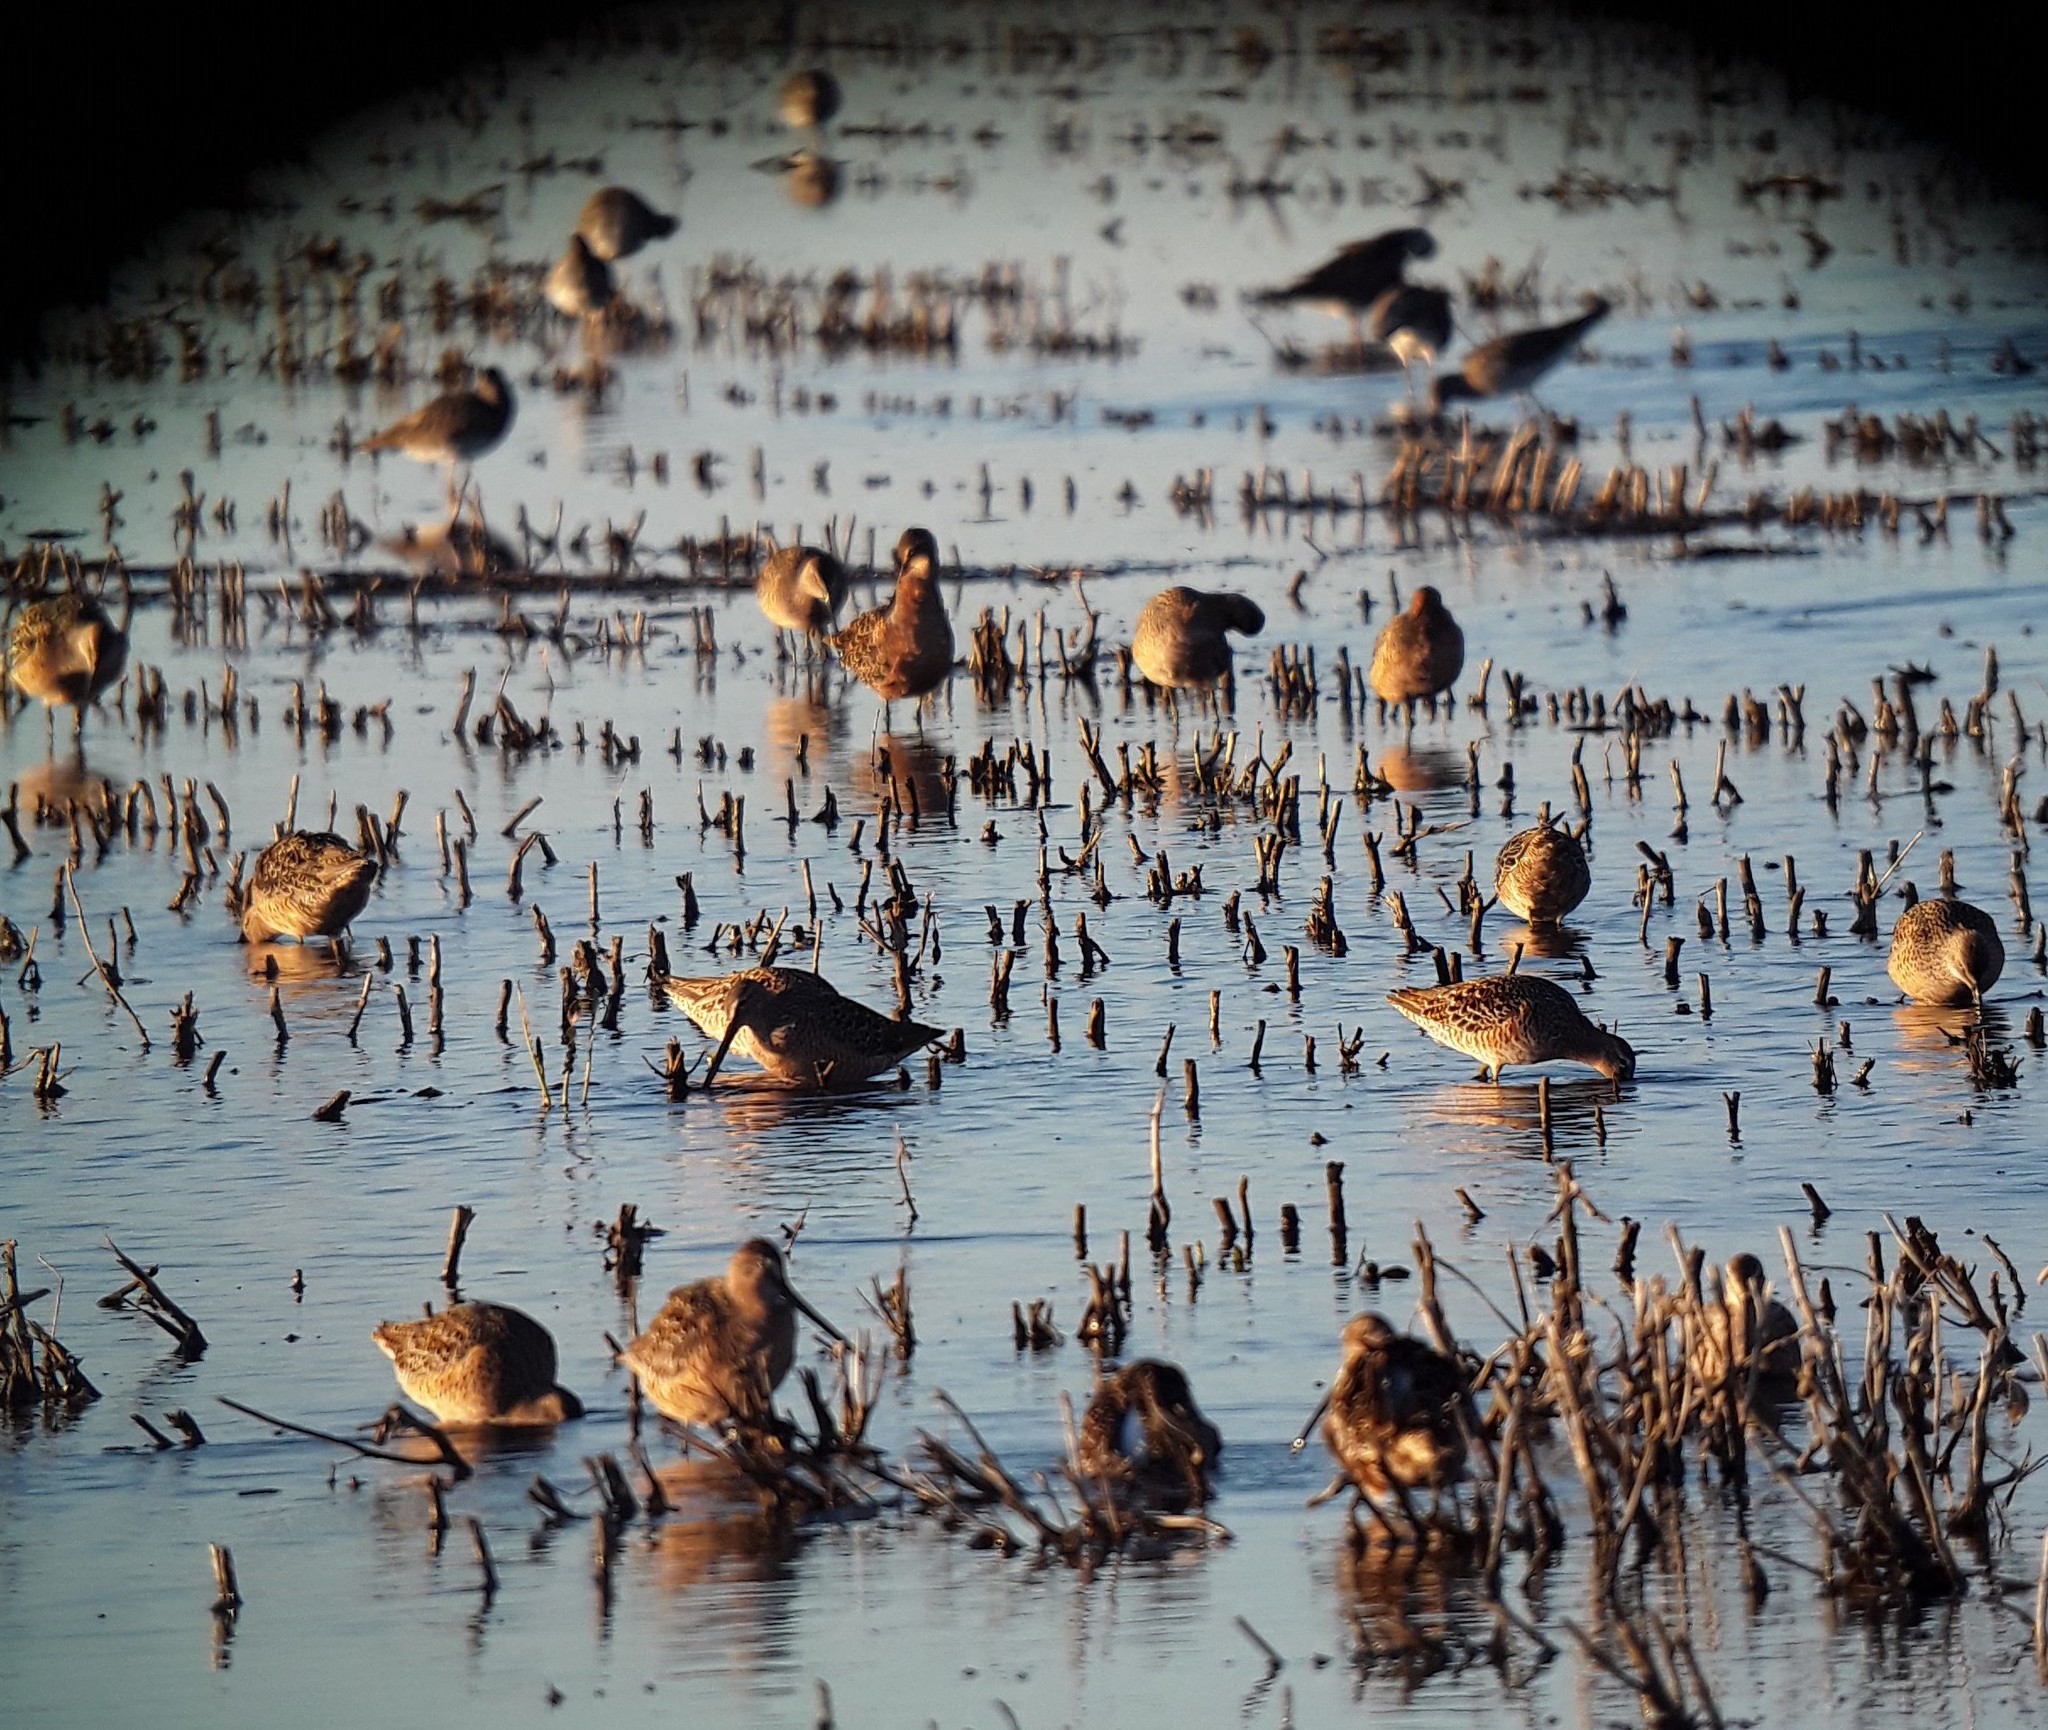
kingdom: Animalia
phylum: Chordata
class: Aves
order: Charadriiformes
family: Scolopacidae
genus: Limnodromus
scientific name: Limnodromus scolopaceus
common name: Long-billed dowitcher
